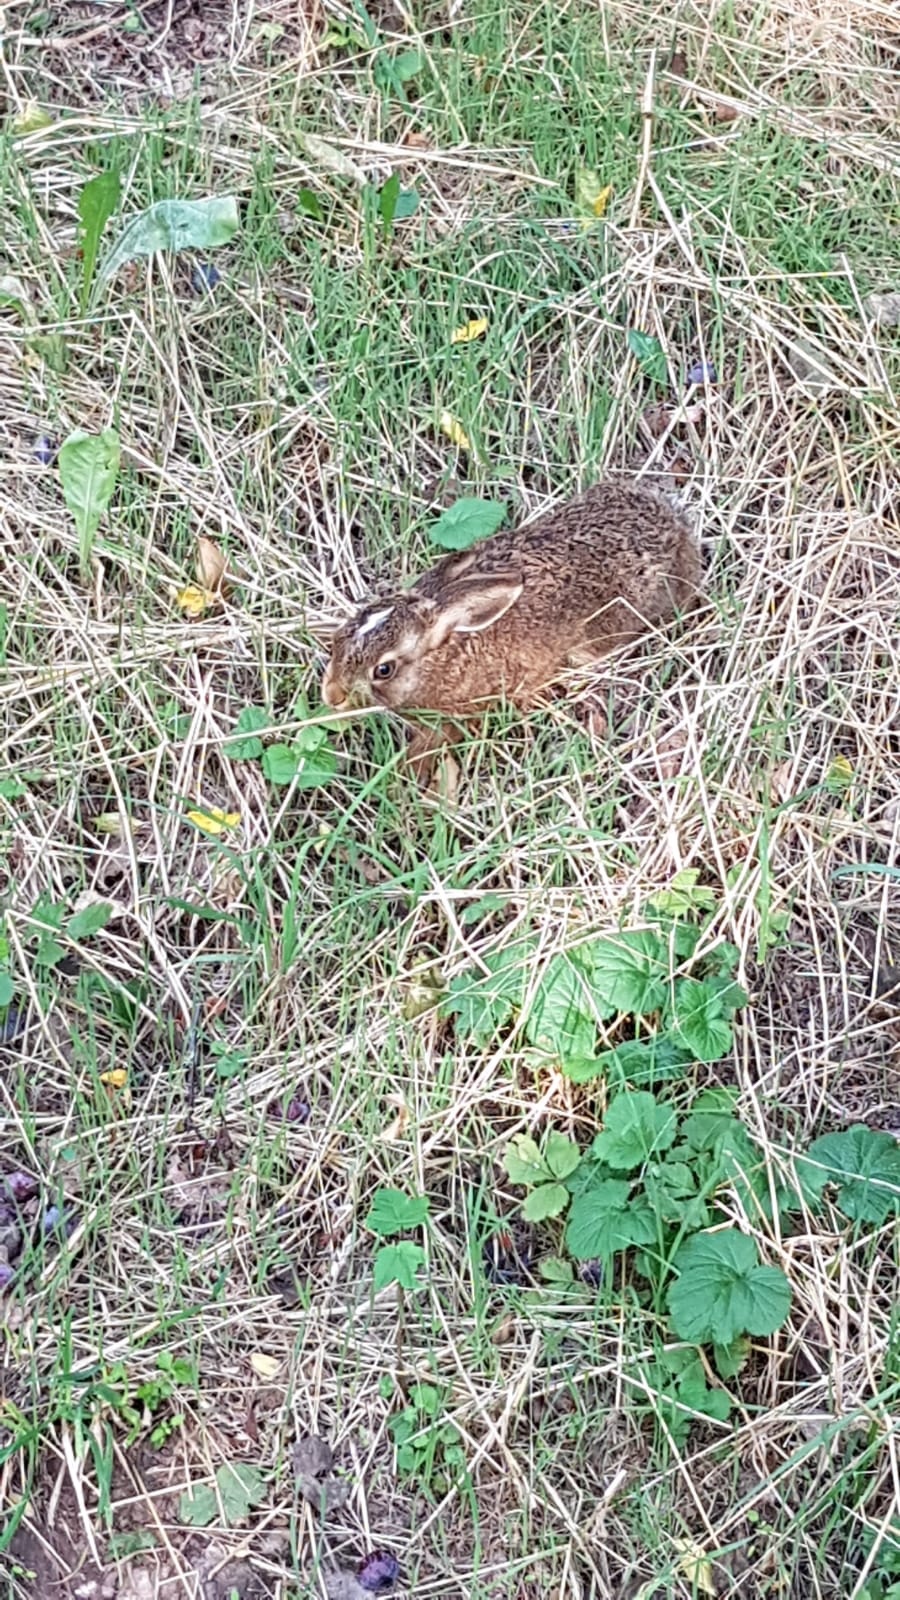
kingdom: Animalia
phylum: Chordata
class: Mammalia
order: Lagomorpha
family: Leporidae
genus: Lepus
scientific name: Lepus europaeus
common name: European hare
